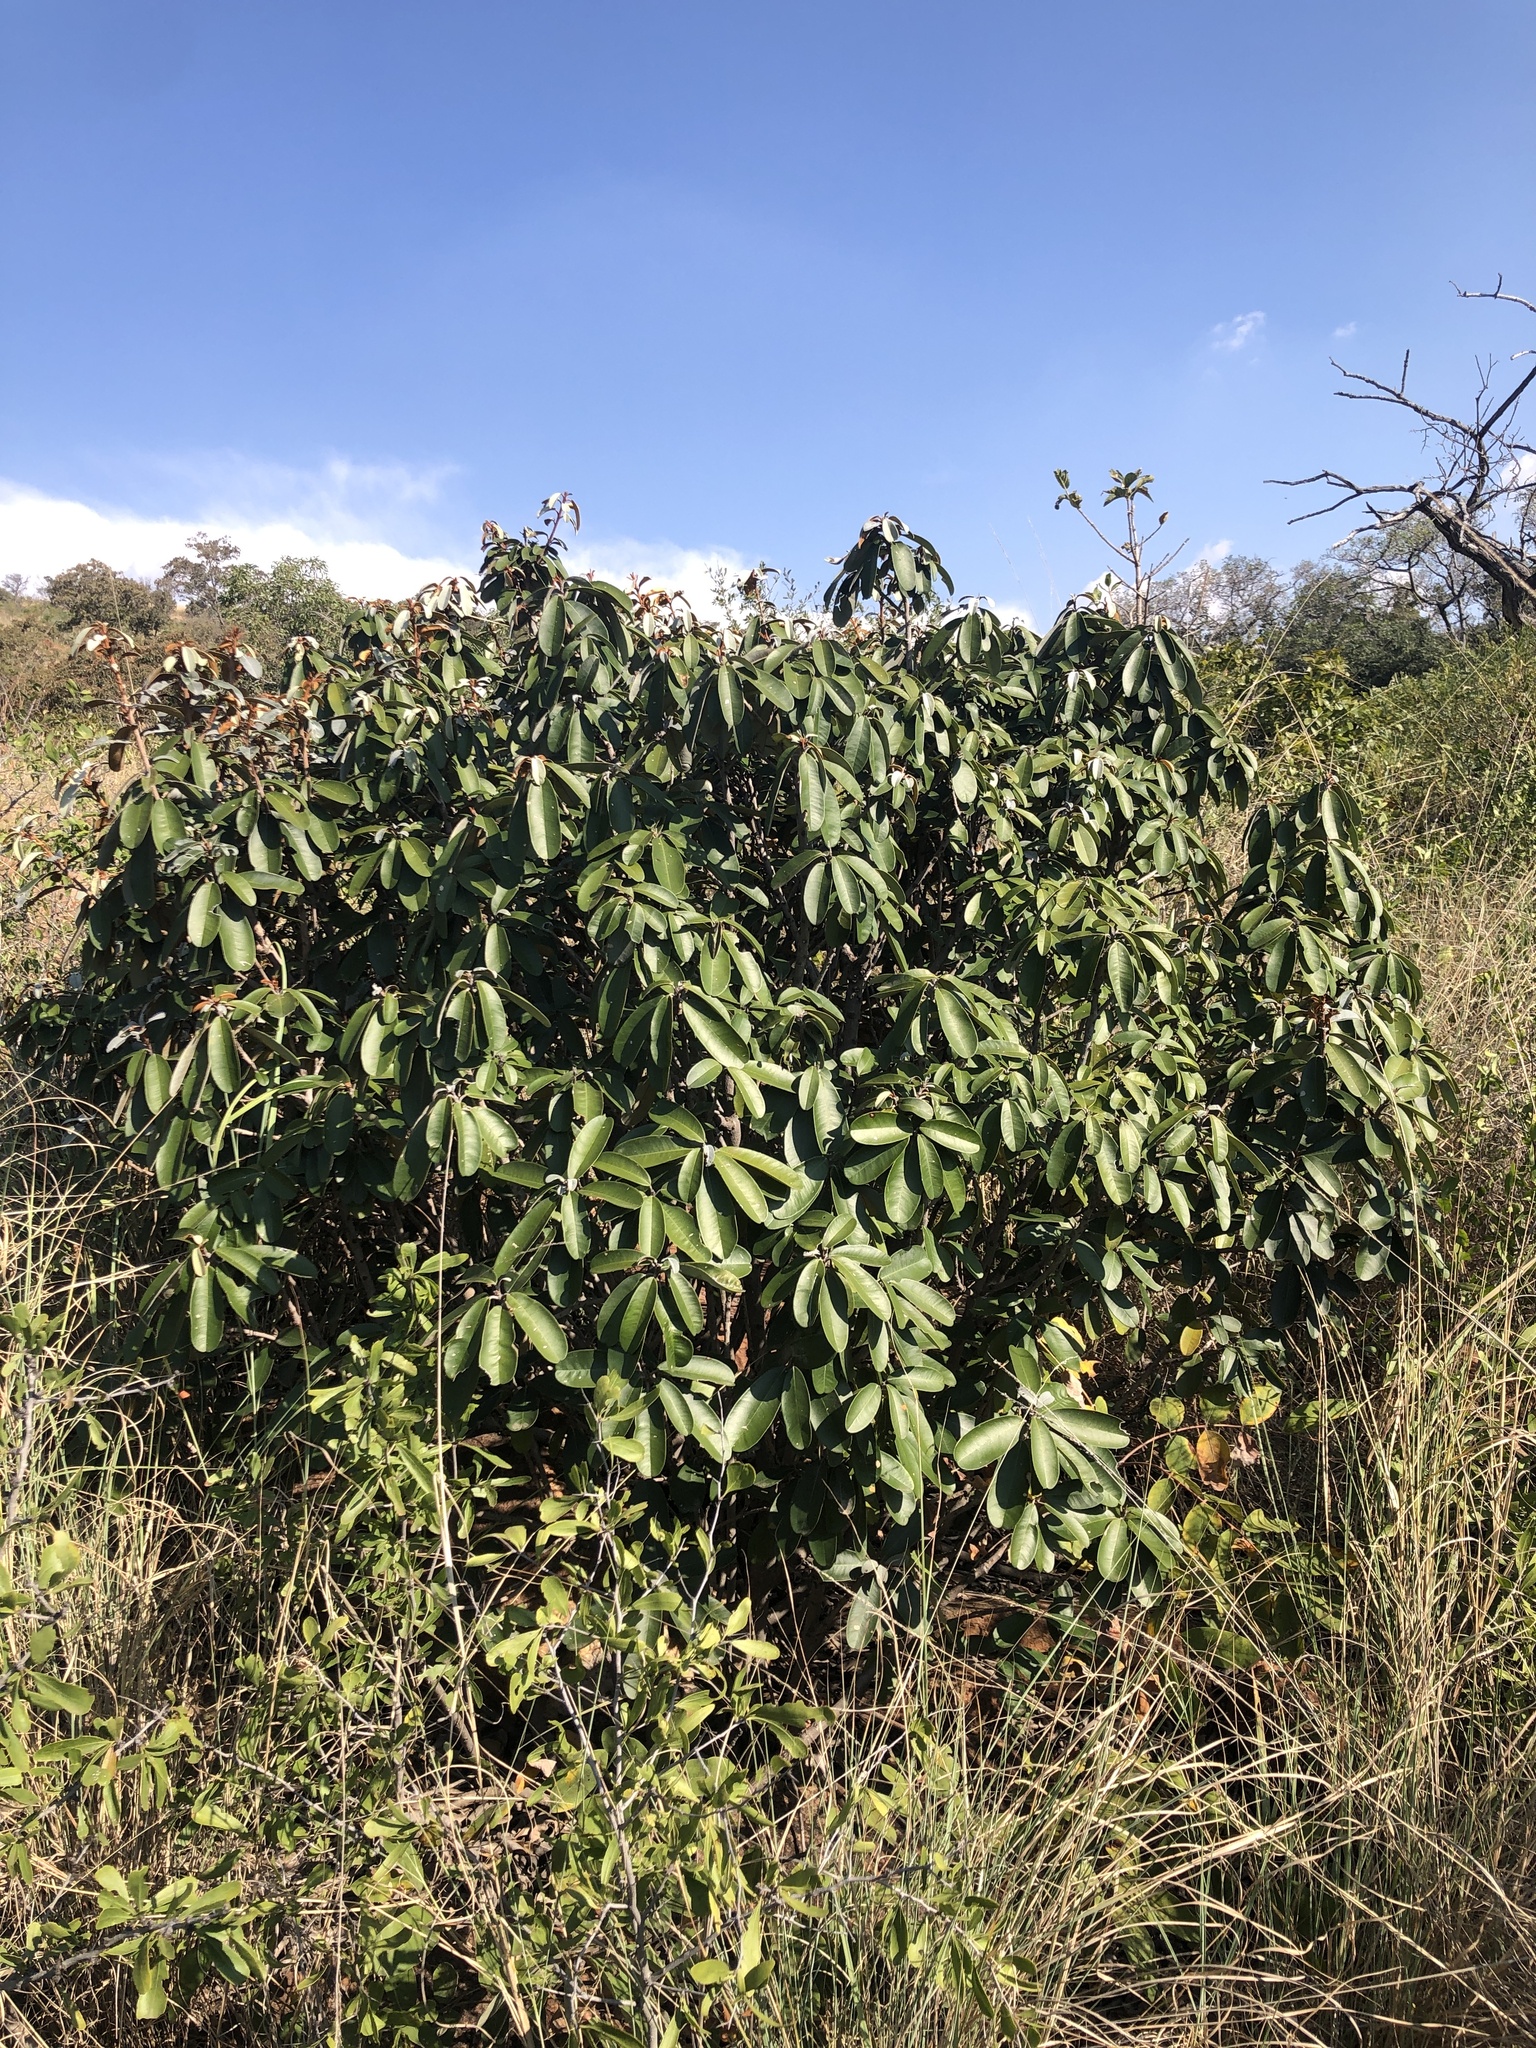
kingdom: Plantae
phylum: Tracheophyta
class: Magnoliopsida
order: Ericales
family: Sapotaceae
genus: Englerophytum
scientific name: Englerophytum magalismontanum
